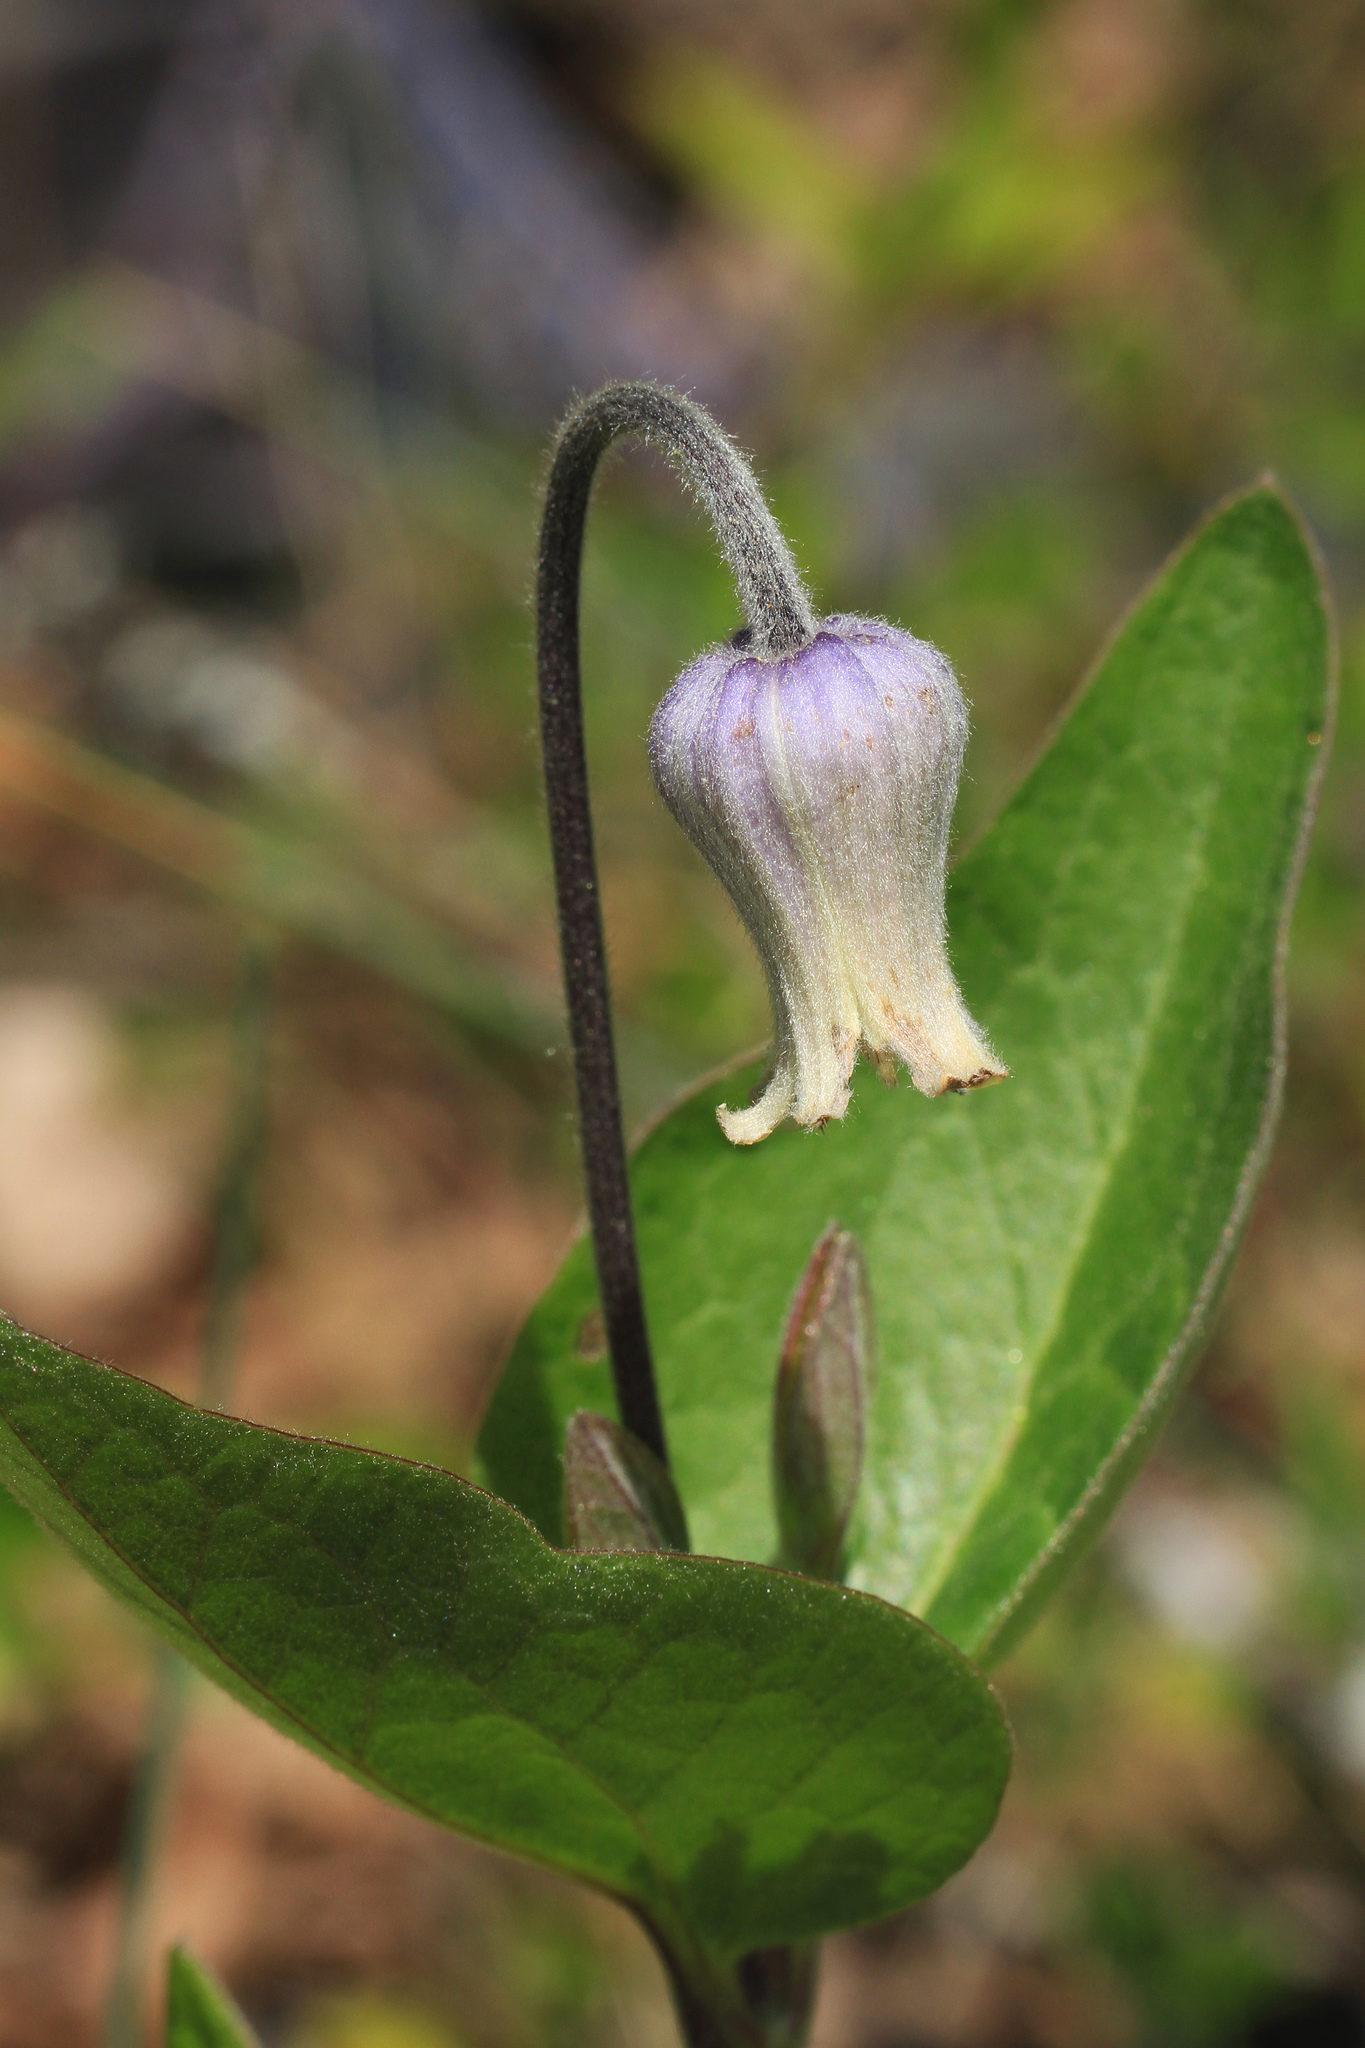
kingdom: Plantae
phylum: Tracheophyta
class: Magnoliopsida
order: Ranunculales
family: Ranunculaceae
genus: Clematis
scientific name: Clematis ochroleuca
